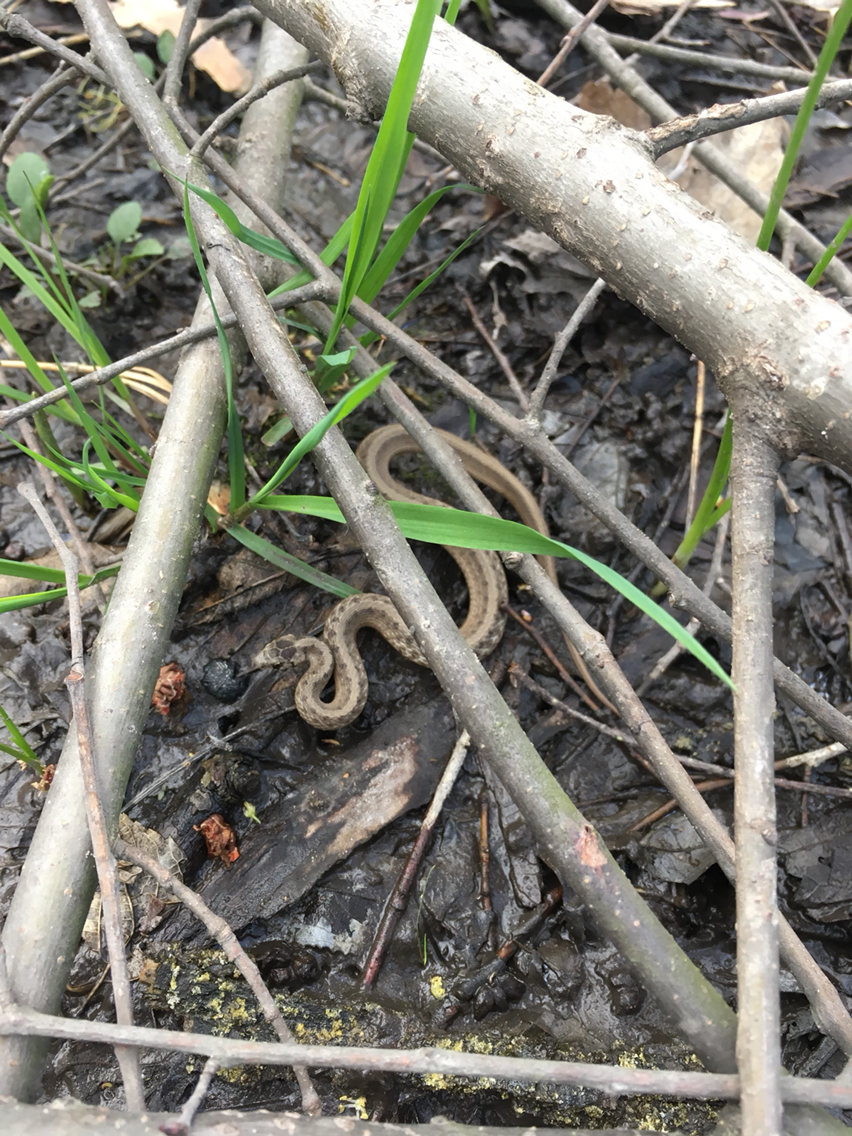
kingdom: Animalia
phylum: Chordata
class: Squamata
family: Colubridae
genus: Storeria
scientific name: Storeria dekayi
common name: (dekay’s) brown snake
